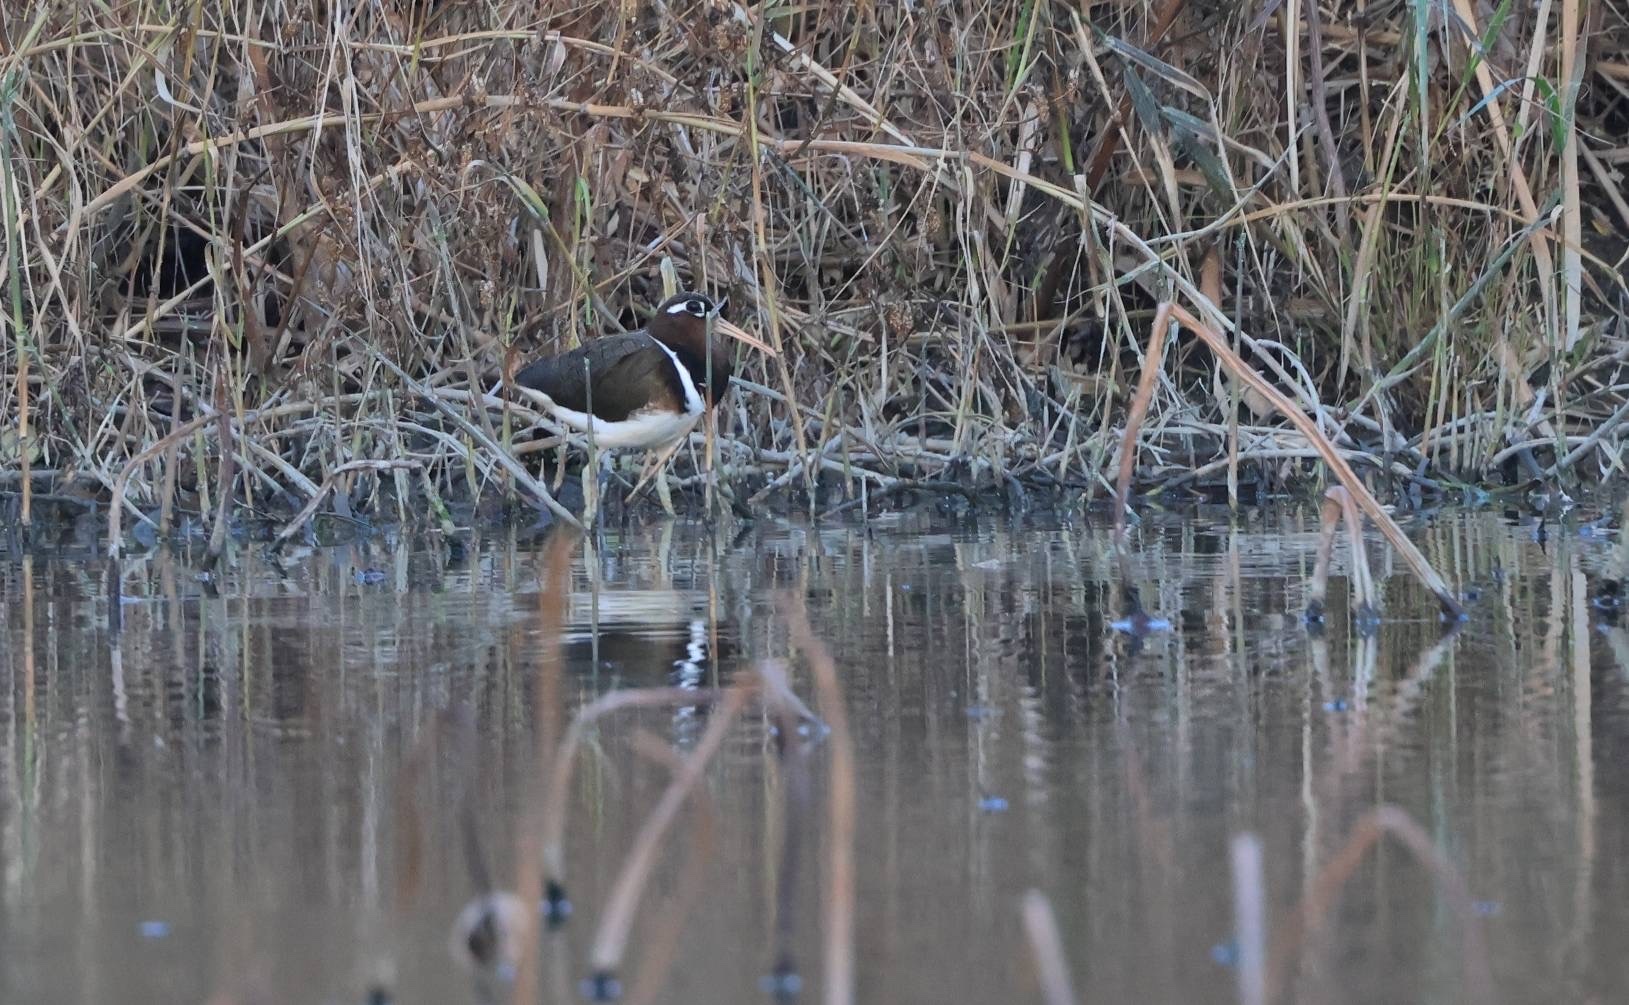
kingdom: Animalia
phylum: Chordata
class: Aves
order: Charadriiformes
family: Rostratulidae
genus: Rostratula
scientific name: Rostratula benghalensis
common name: Greater painted-snipe
